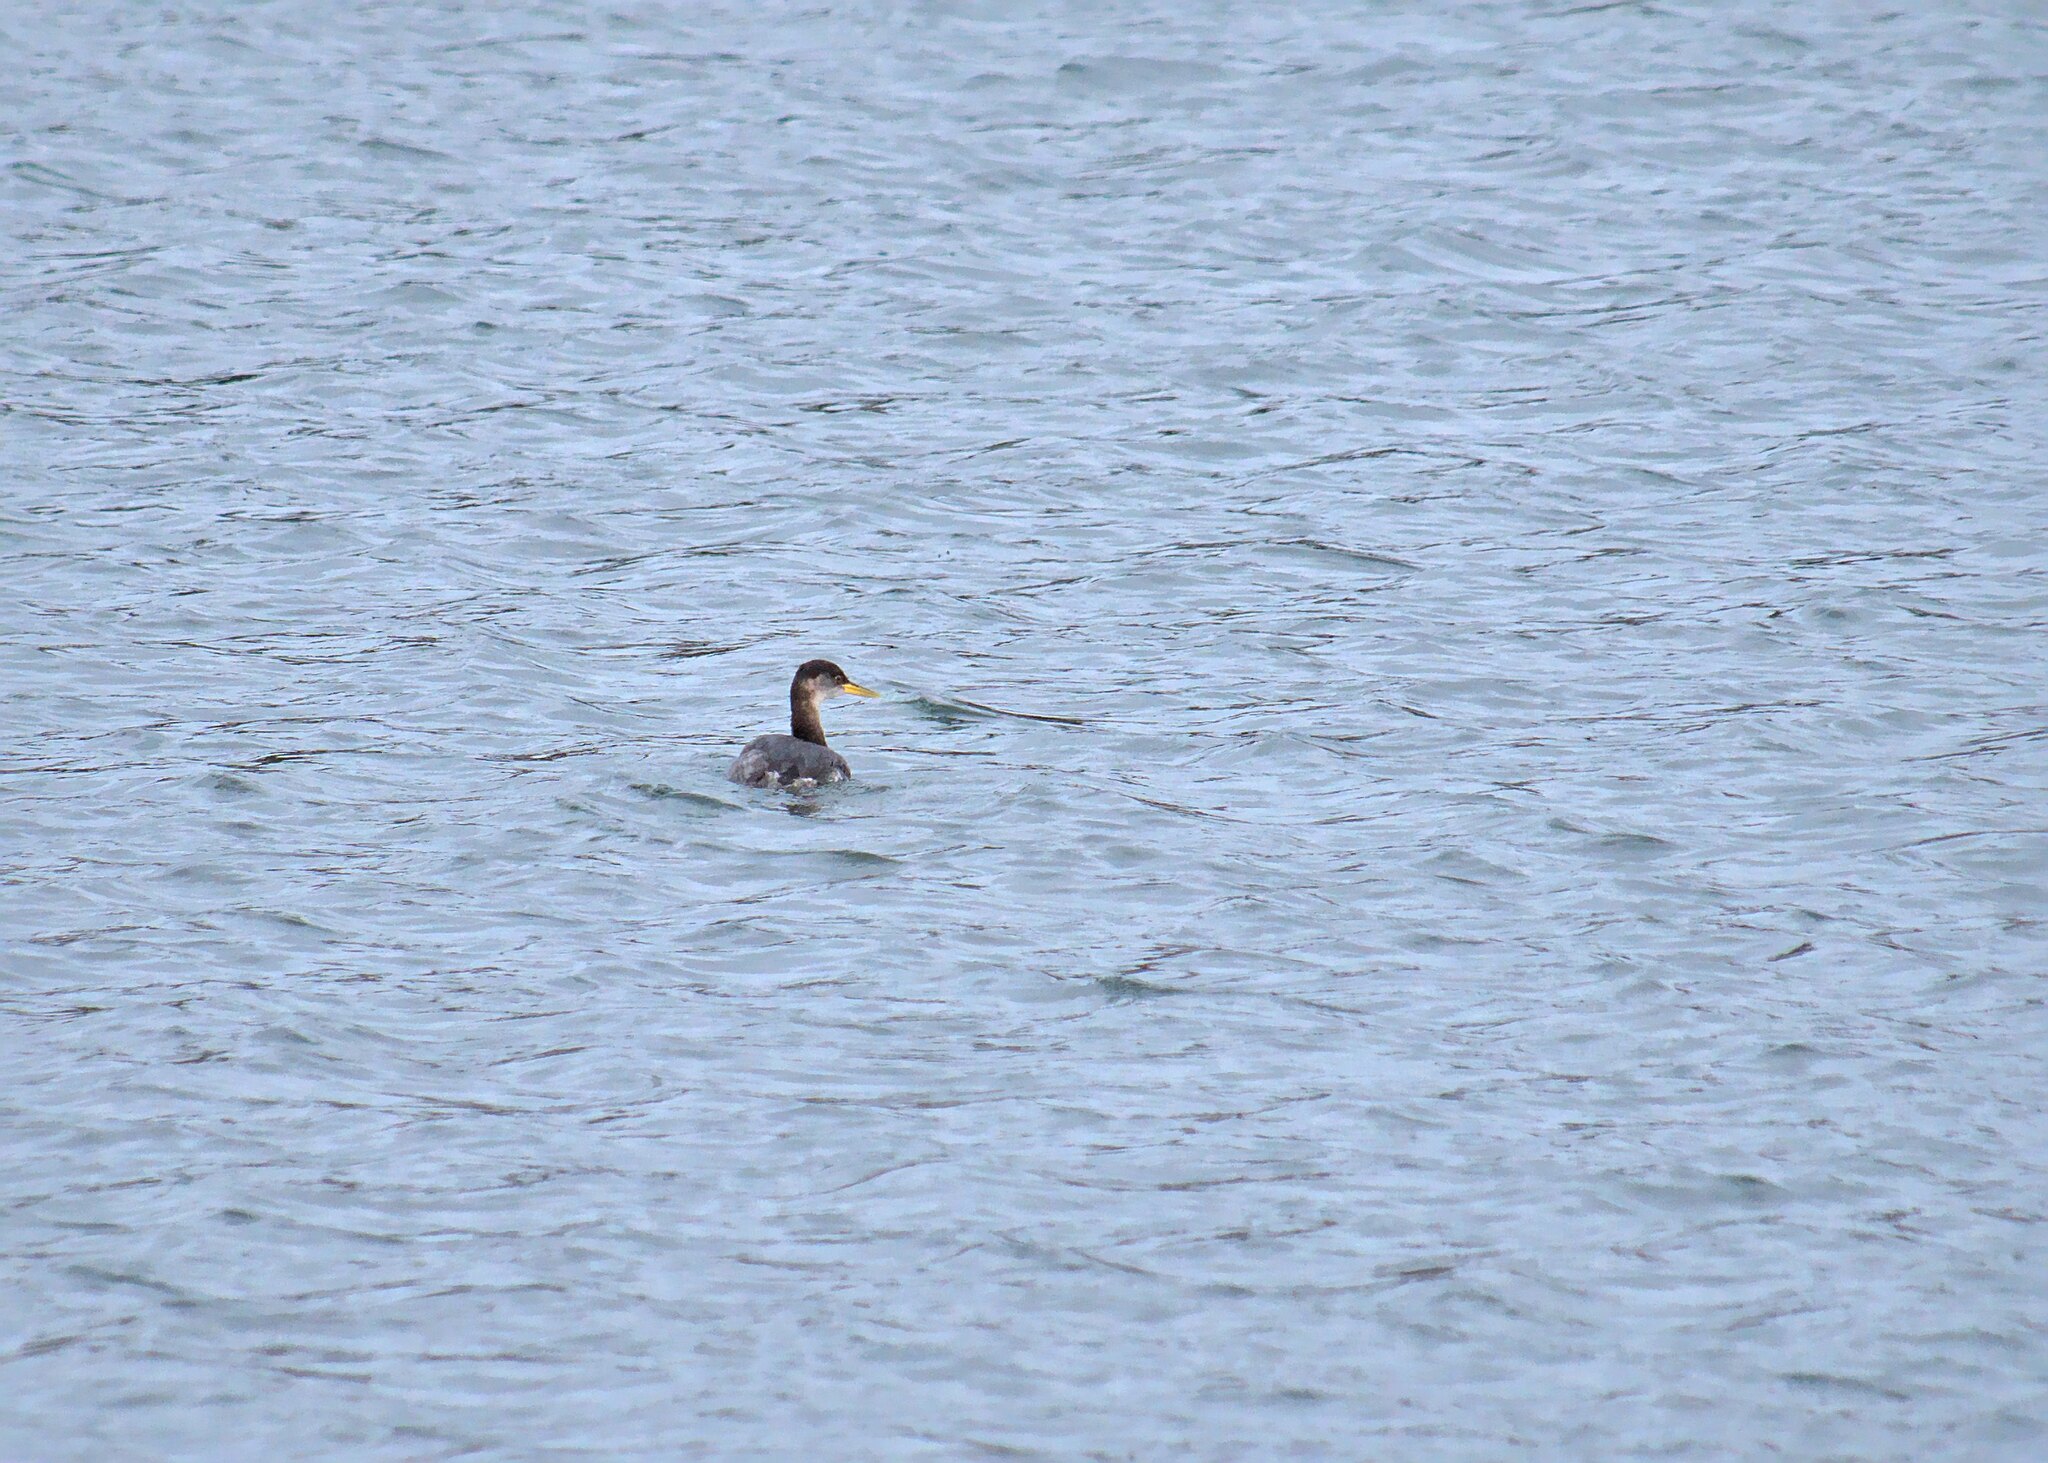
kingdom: Animalia
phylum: Chordata
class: Aves
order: Podicipediformes
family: Podicipedidae
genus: Podiceps
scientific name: Podiceps grisegena
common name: Red-necked grebe
